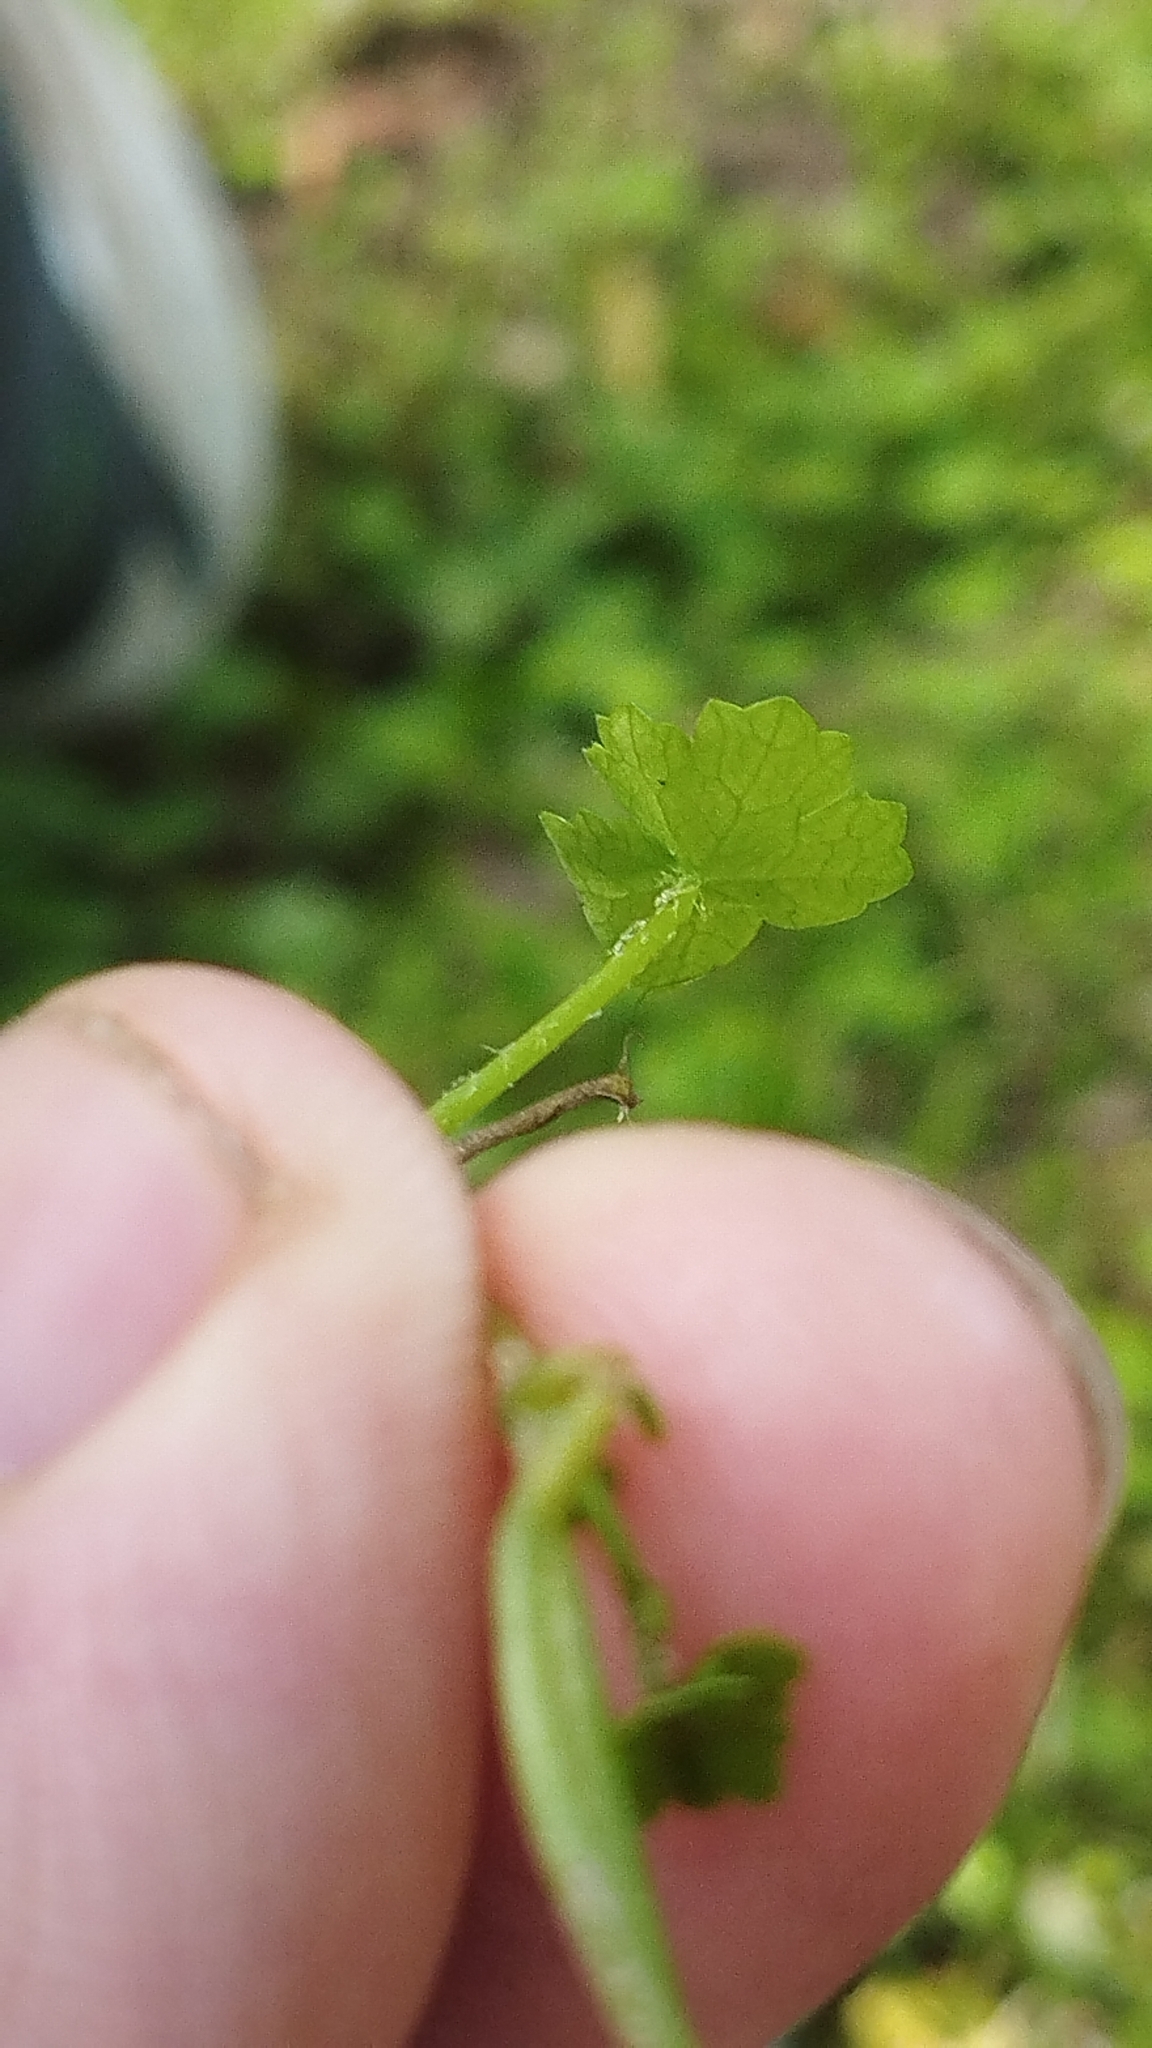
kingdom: Plantae
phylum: Tracheophyta
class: Magnoliopsida
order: Apiales
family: Araliaceae
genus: Hydrocotyle
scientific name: Hydrocotyle heteromeria
